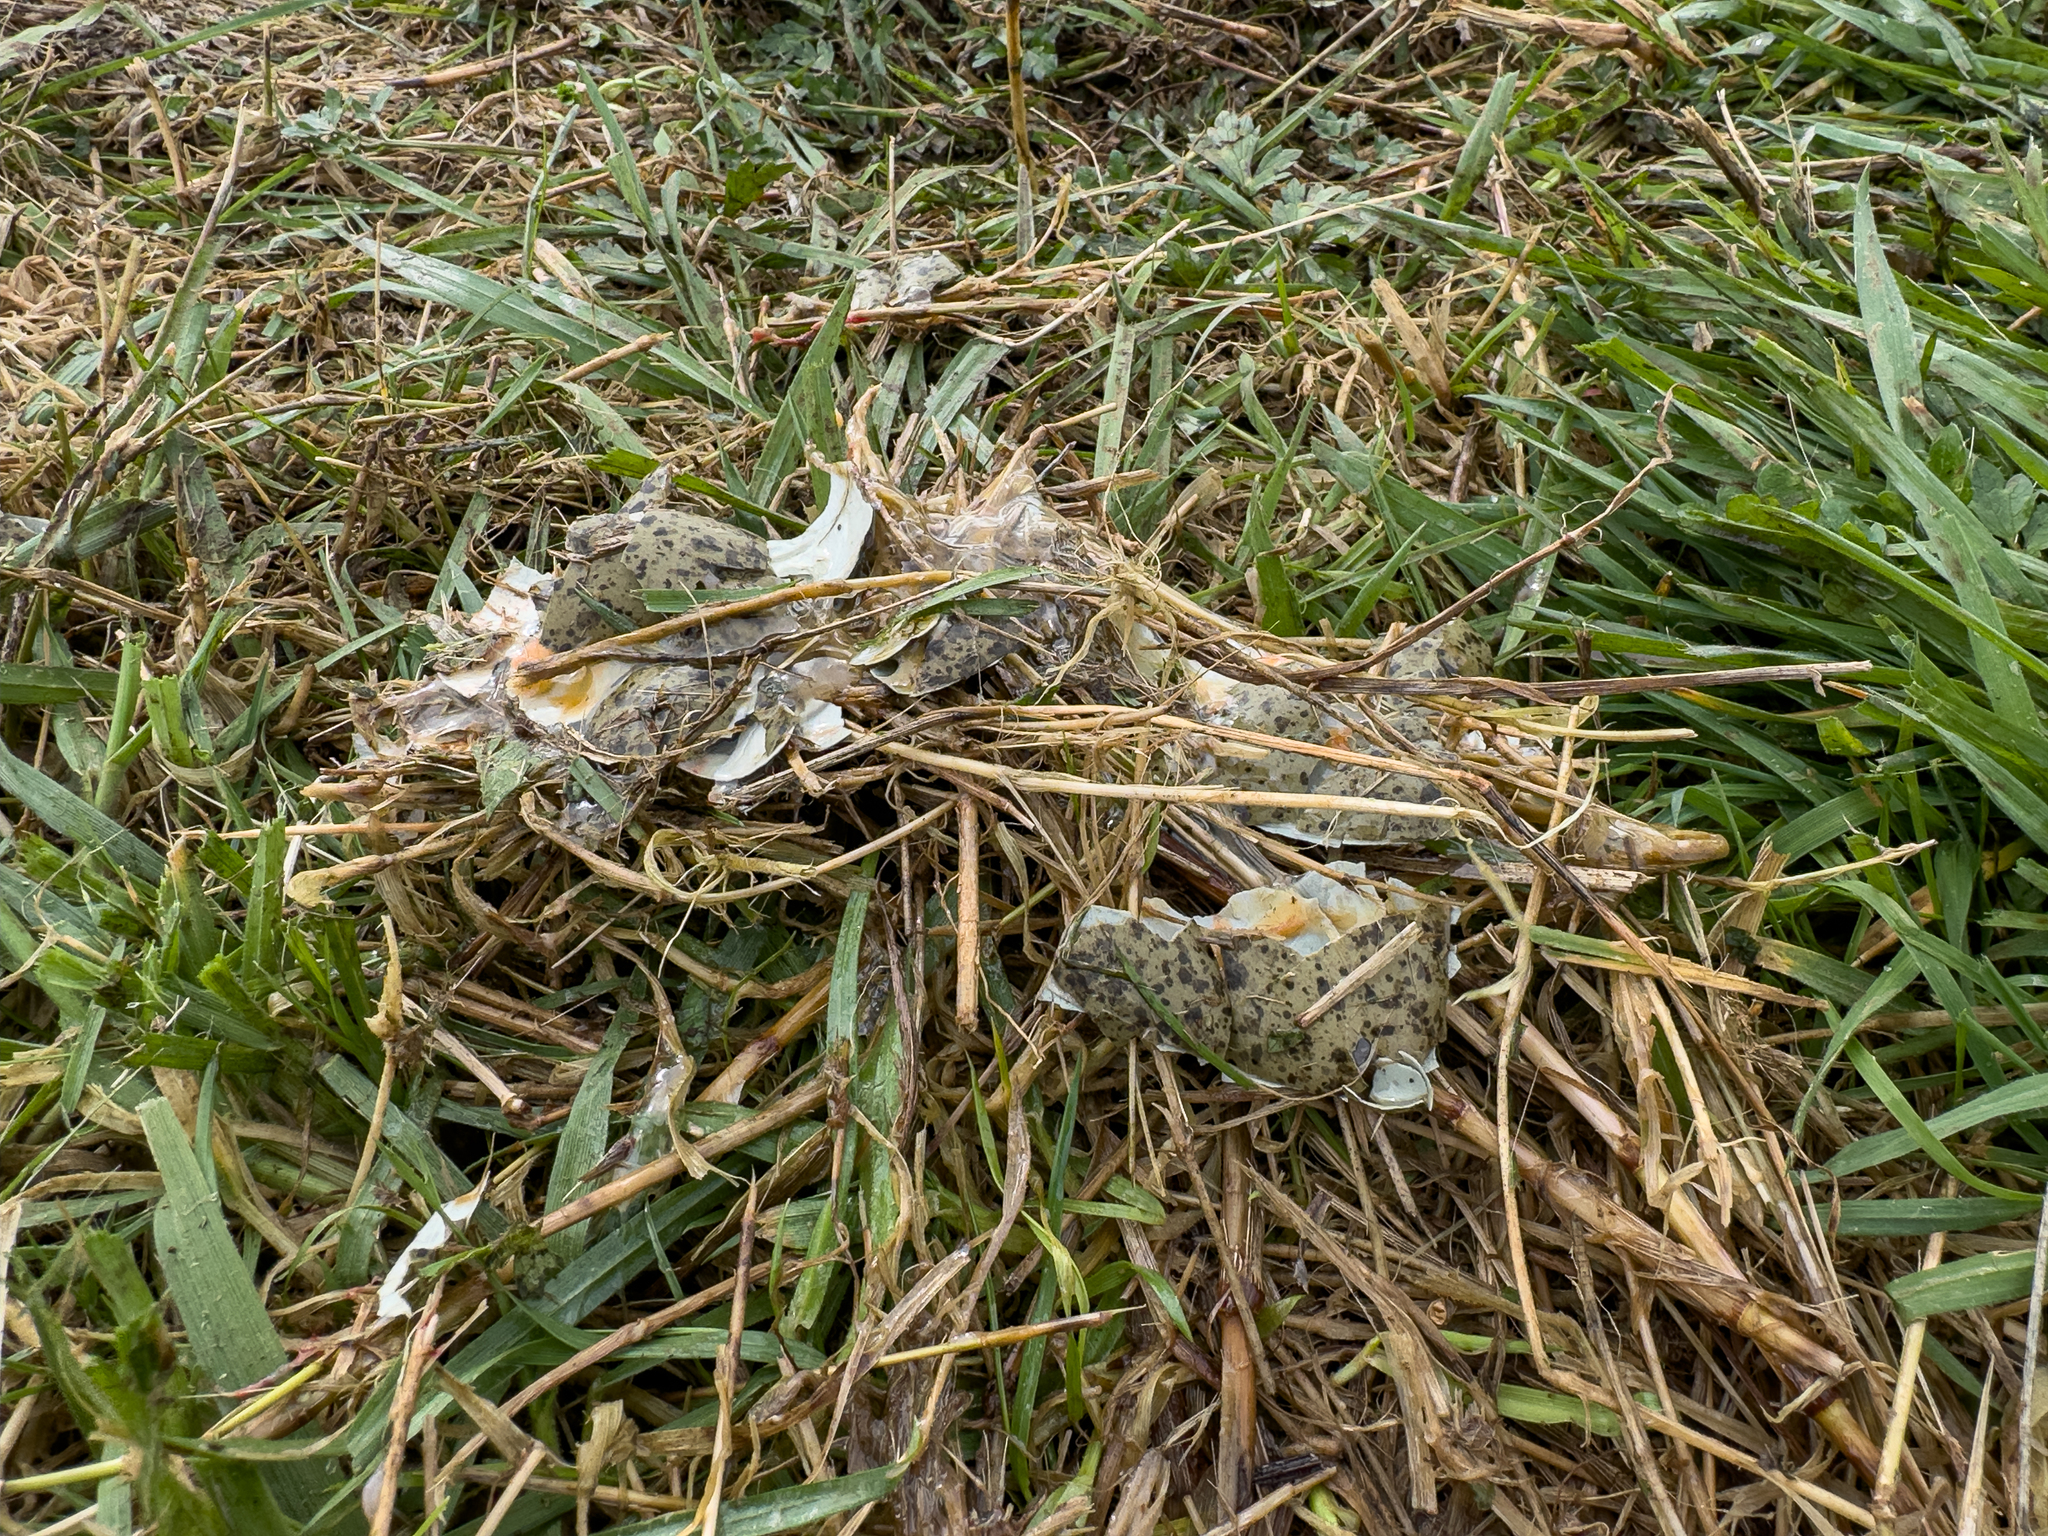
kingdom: Animalia
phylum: Chordata
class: Aves
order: Charadriiformes
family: Charadriidae
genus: Vanellus
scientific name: Vanellus miles
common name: Masked lapwing
